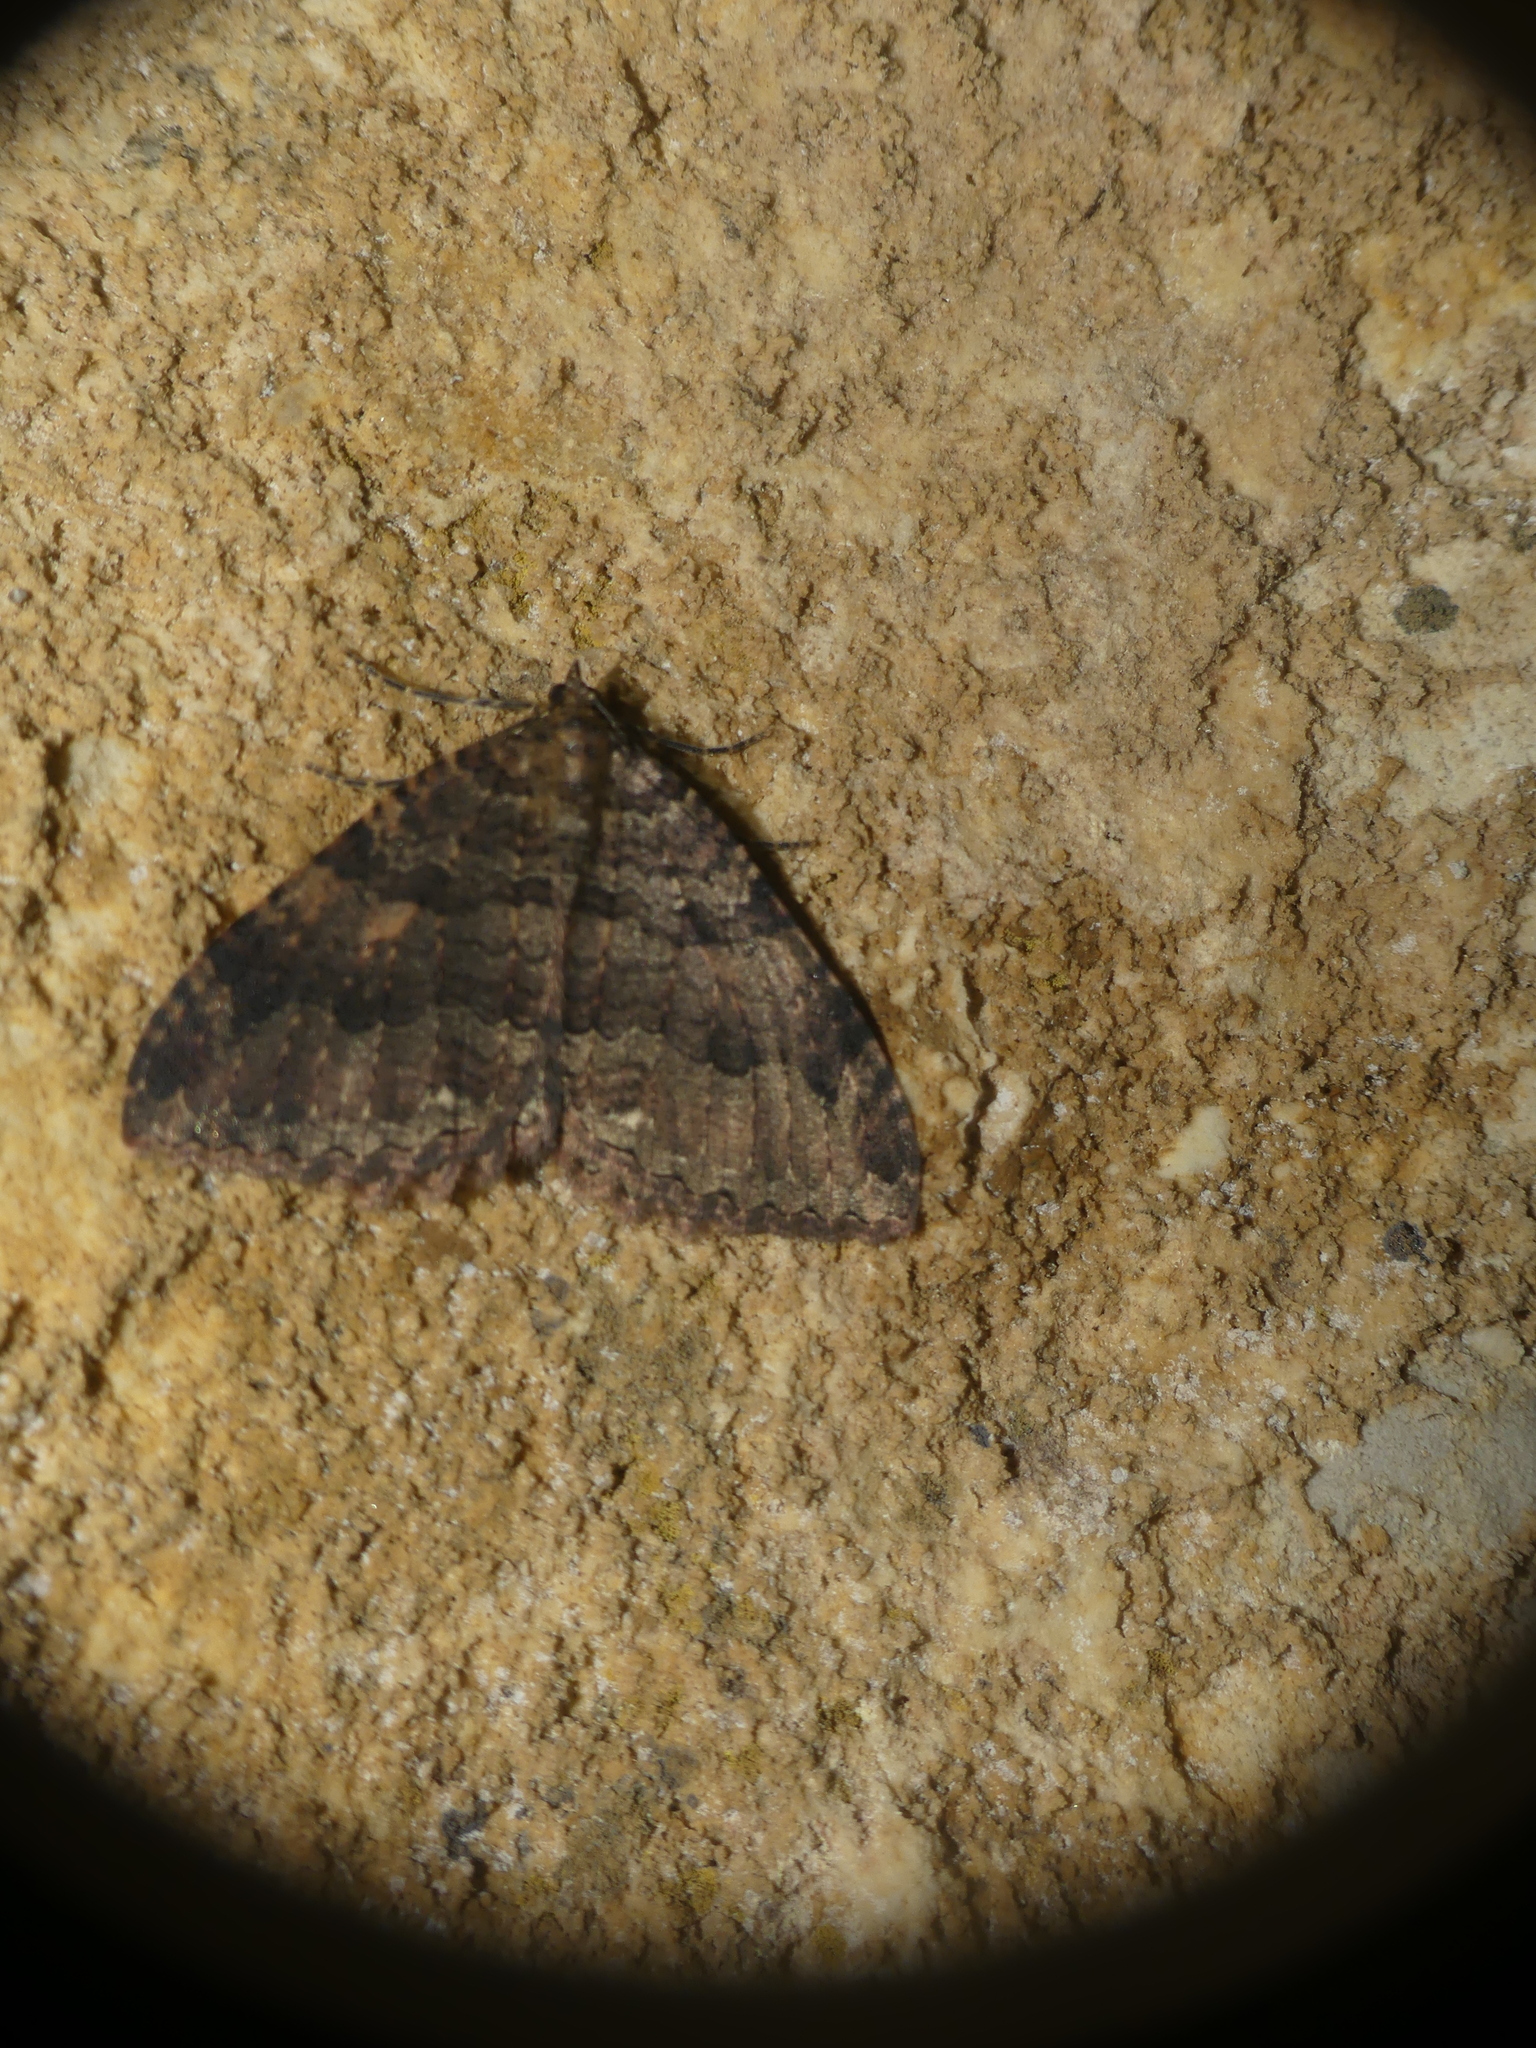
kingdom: Animalia
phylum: Arthropoda
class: Insecta
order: Lepidoptera
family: Geometridae
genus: Triphosa
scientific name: Triphosa dubitata
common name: Tissue
